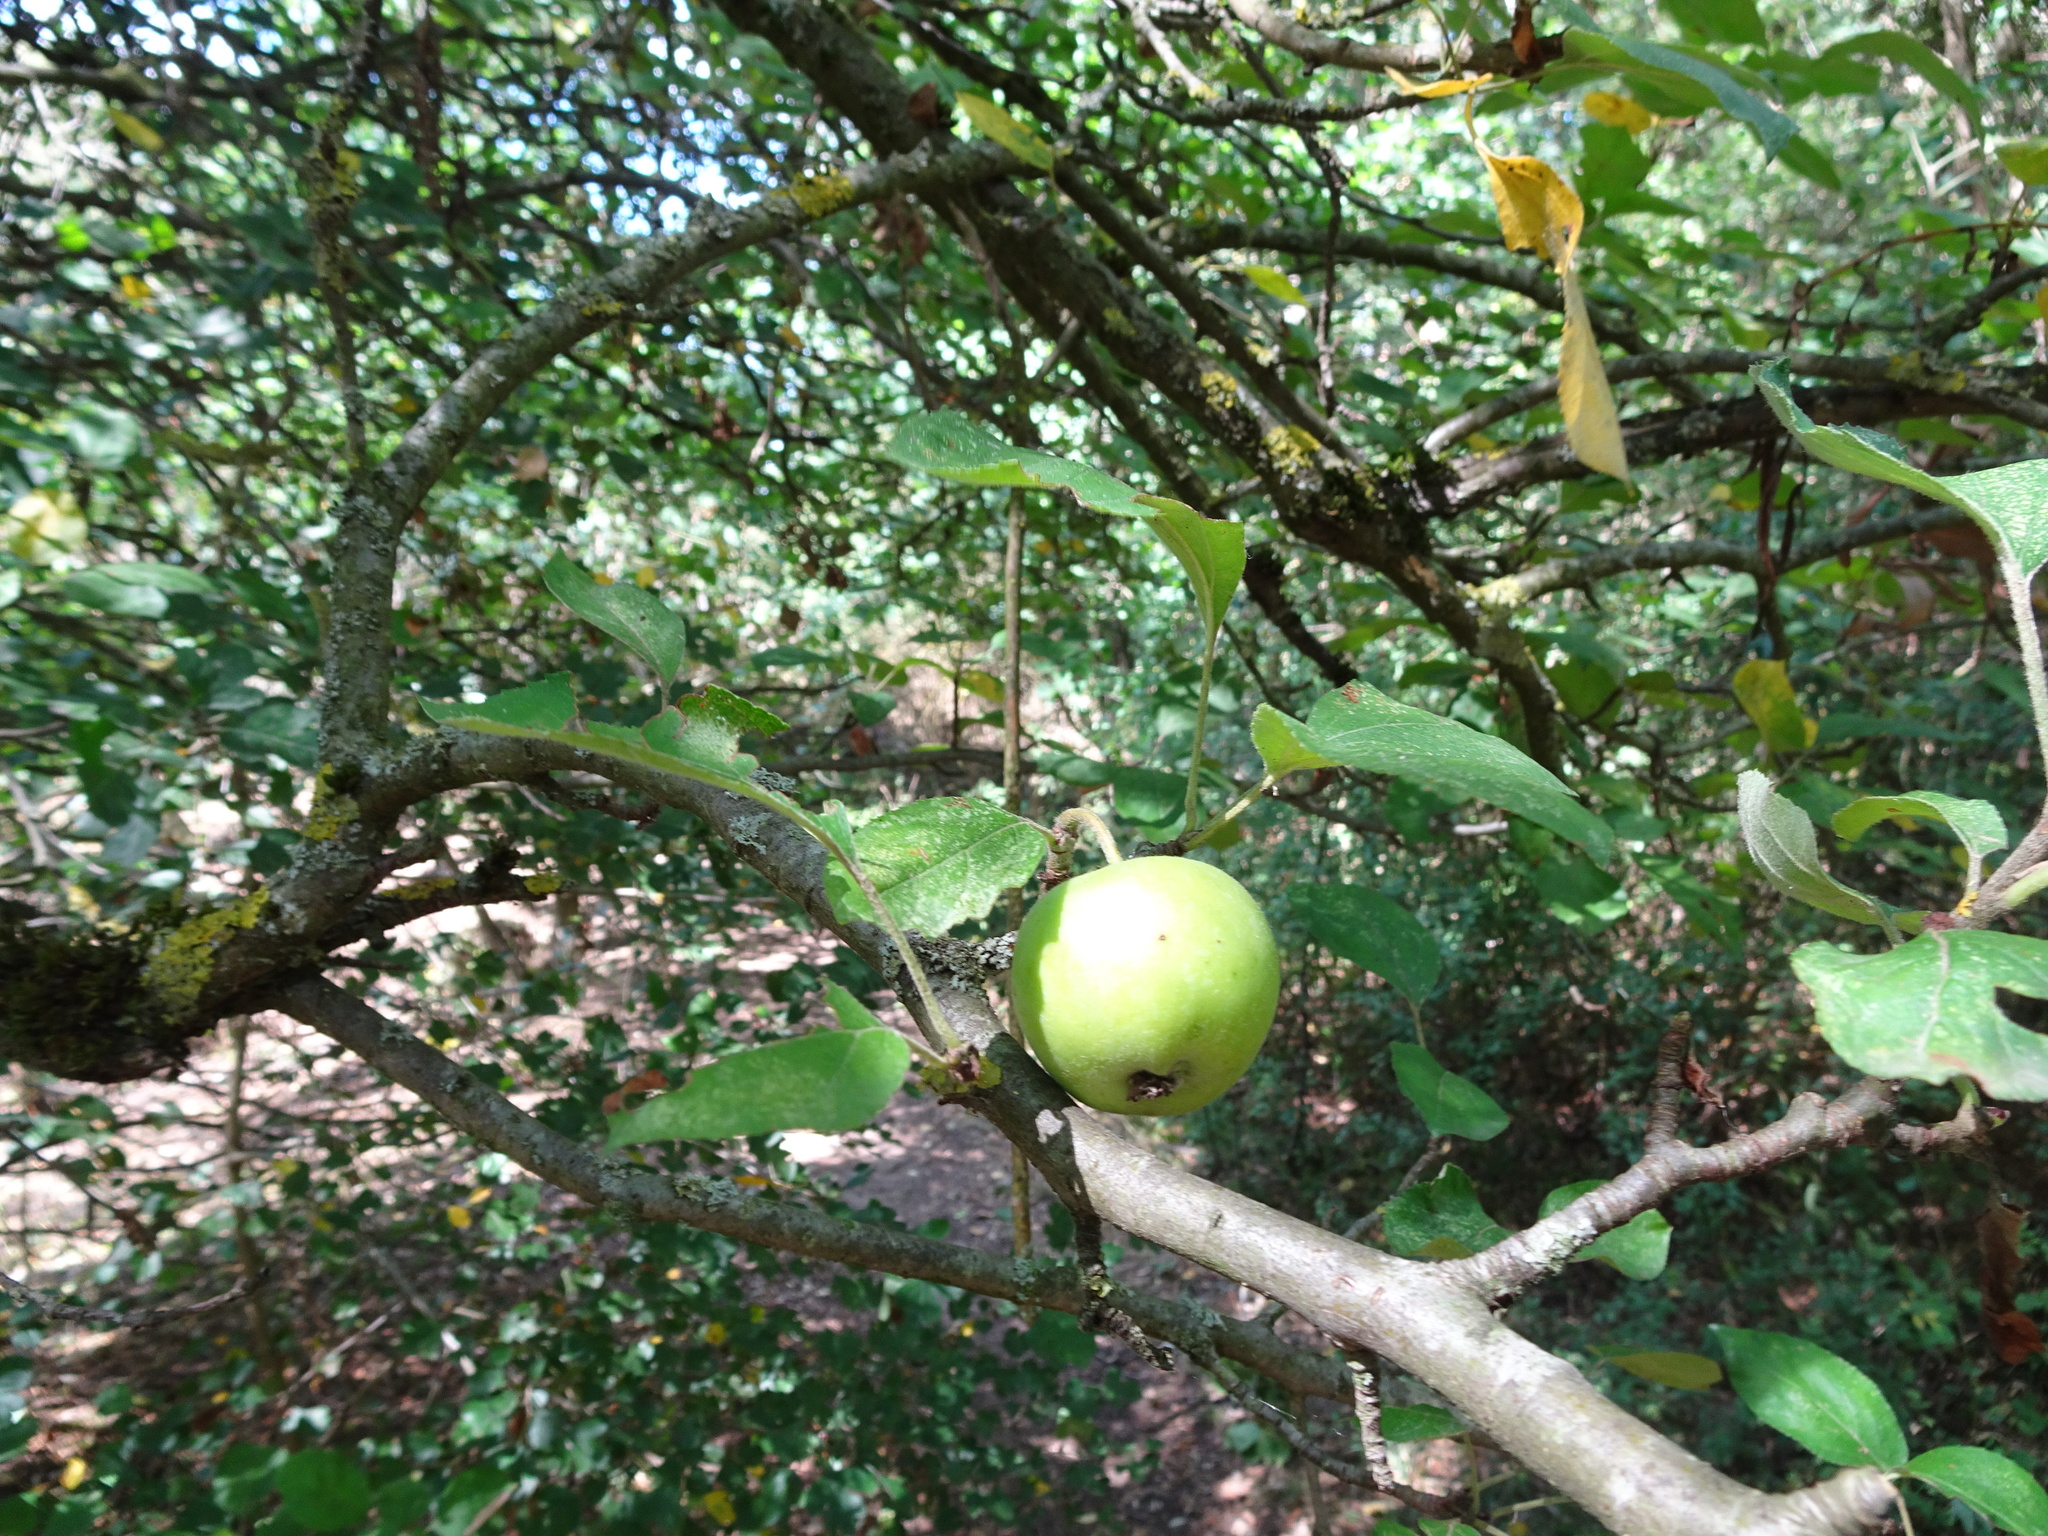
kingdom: Plantae
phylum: Tracheophyta
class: Magnoliopsida
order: Rosales
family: Rosaceae
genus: Malus
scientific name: Malus sylvestris
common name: Crab apple
